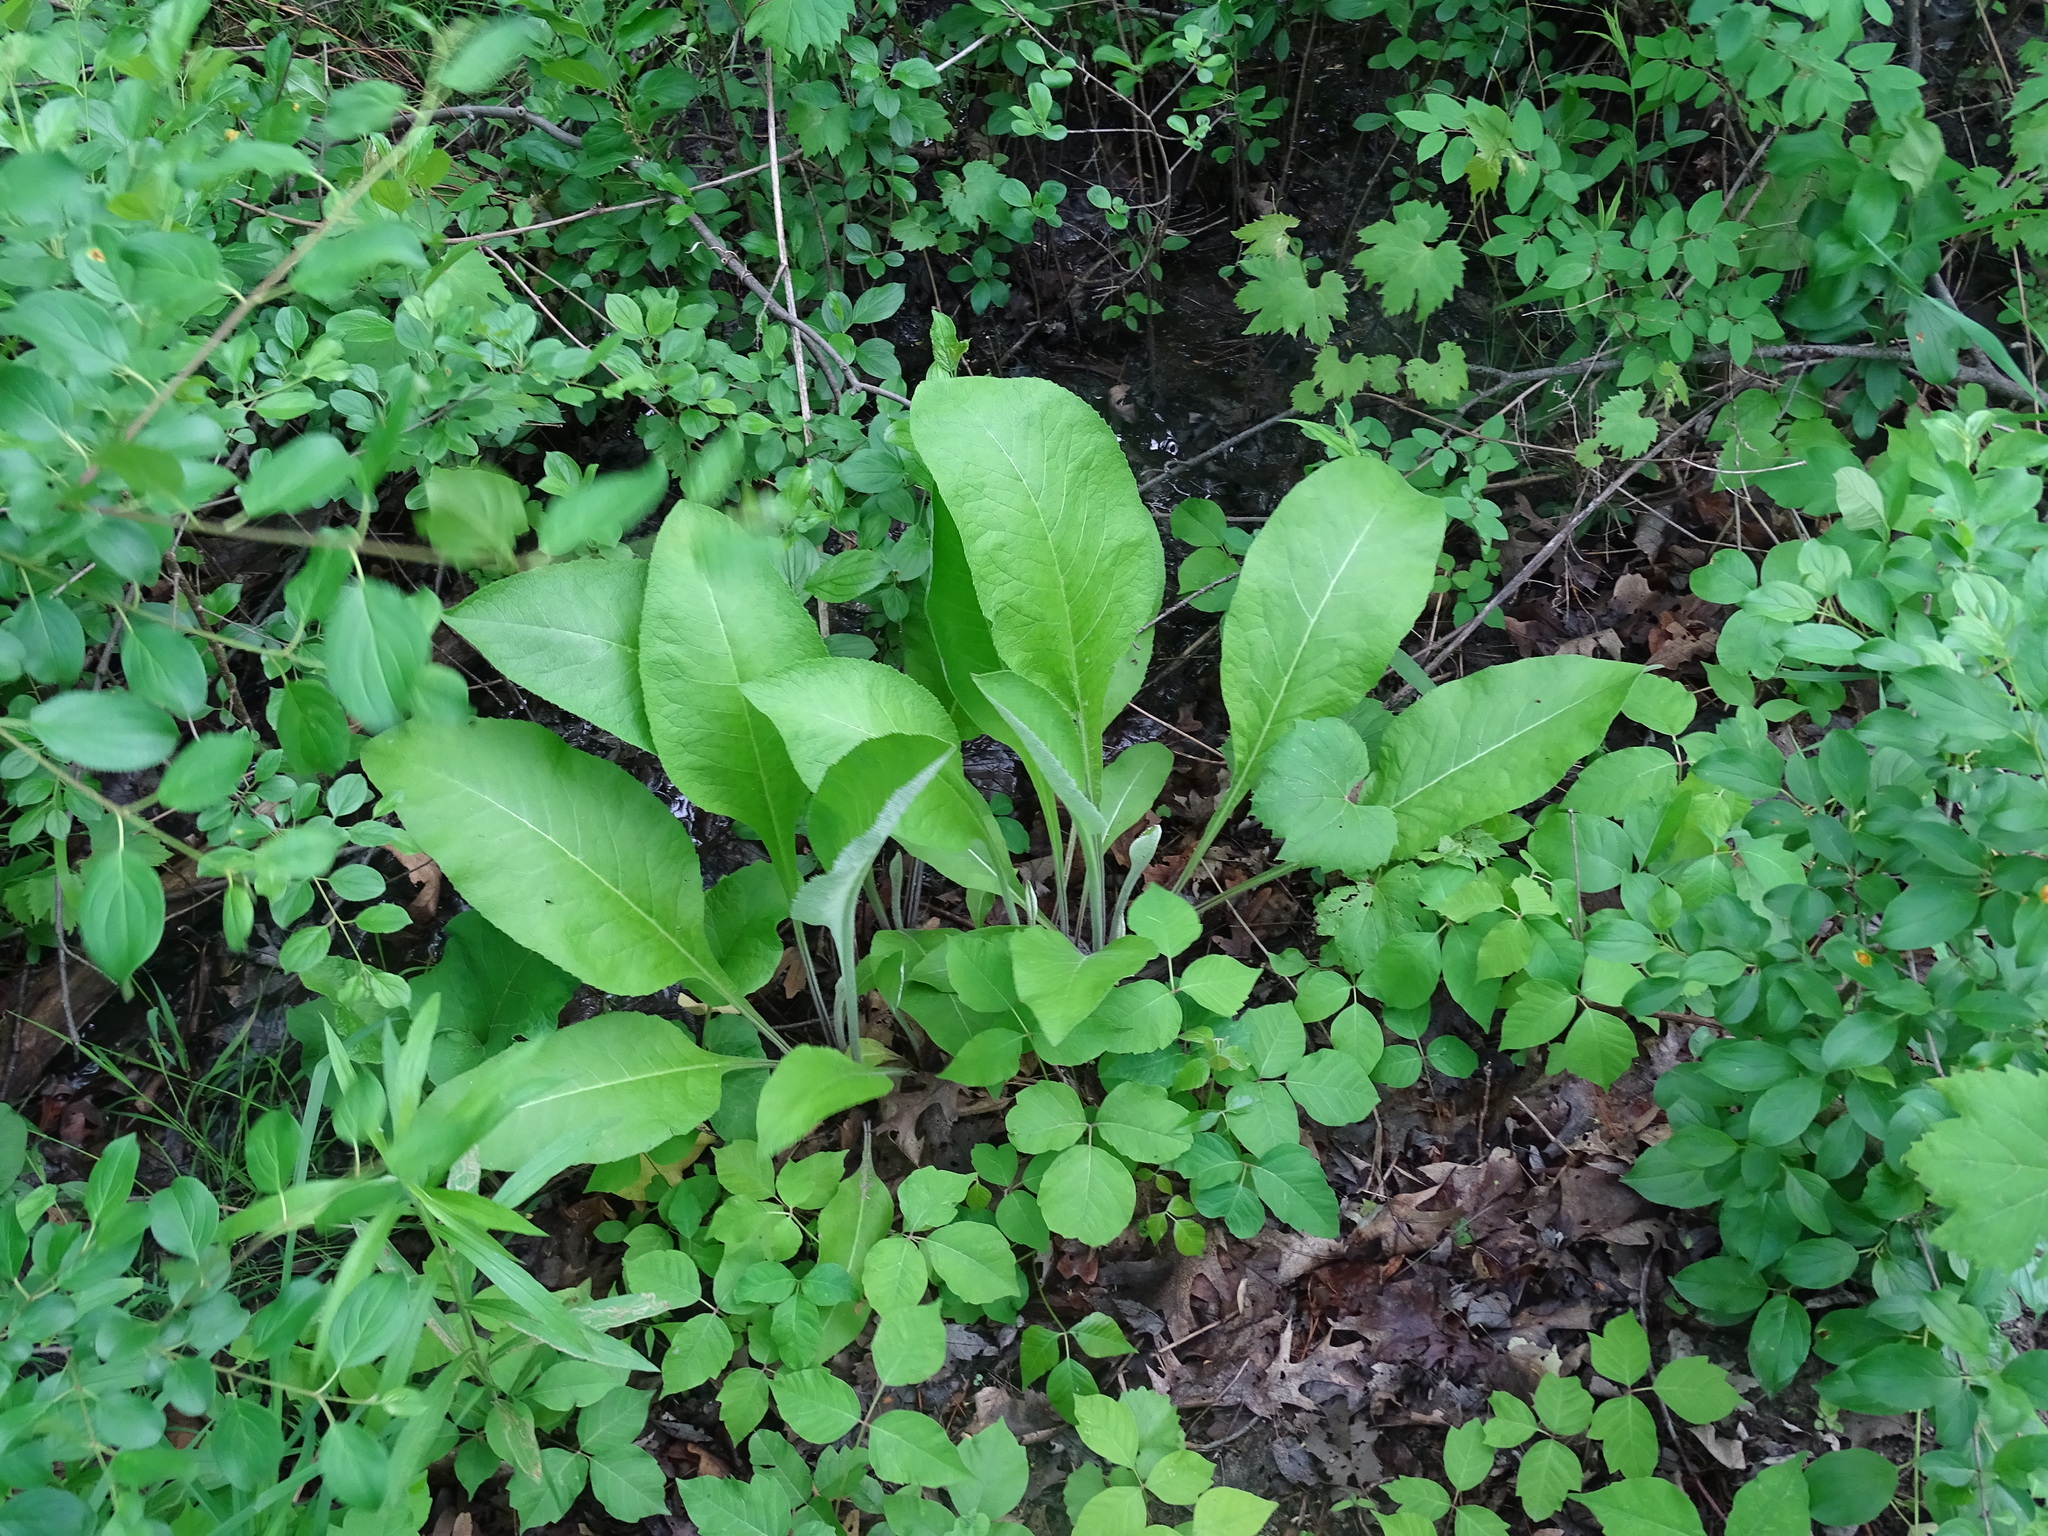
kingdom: Plantae
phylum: Tracheophyta
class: Magnoliopsida
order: Asterales
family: Asteraceae
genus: Inula
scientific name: Inula helenium
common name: Elecampane
